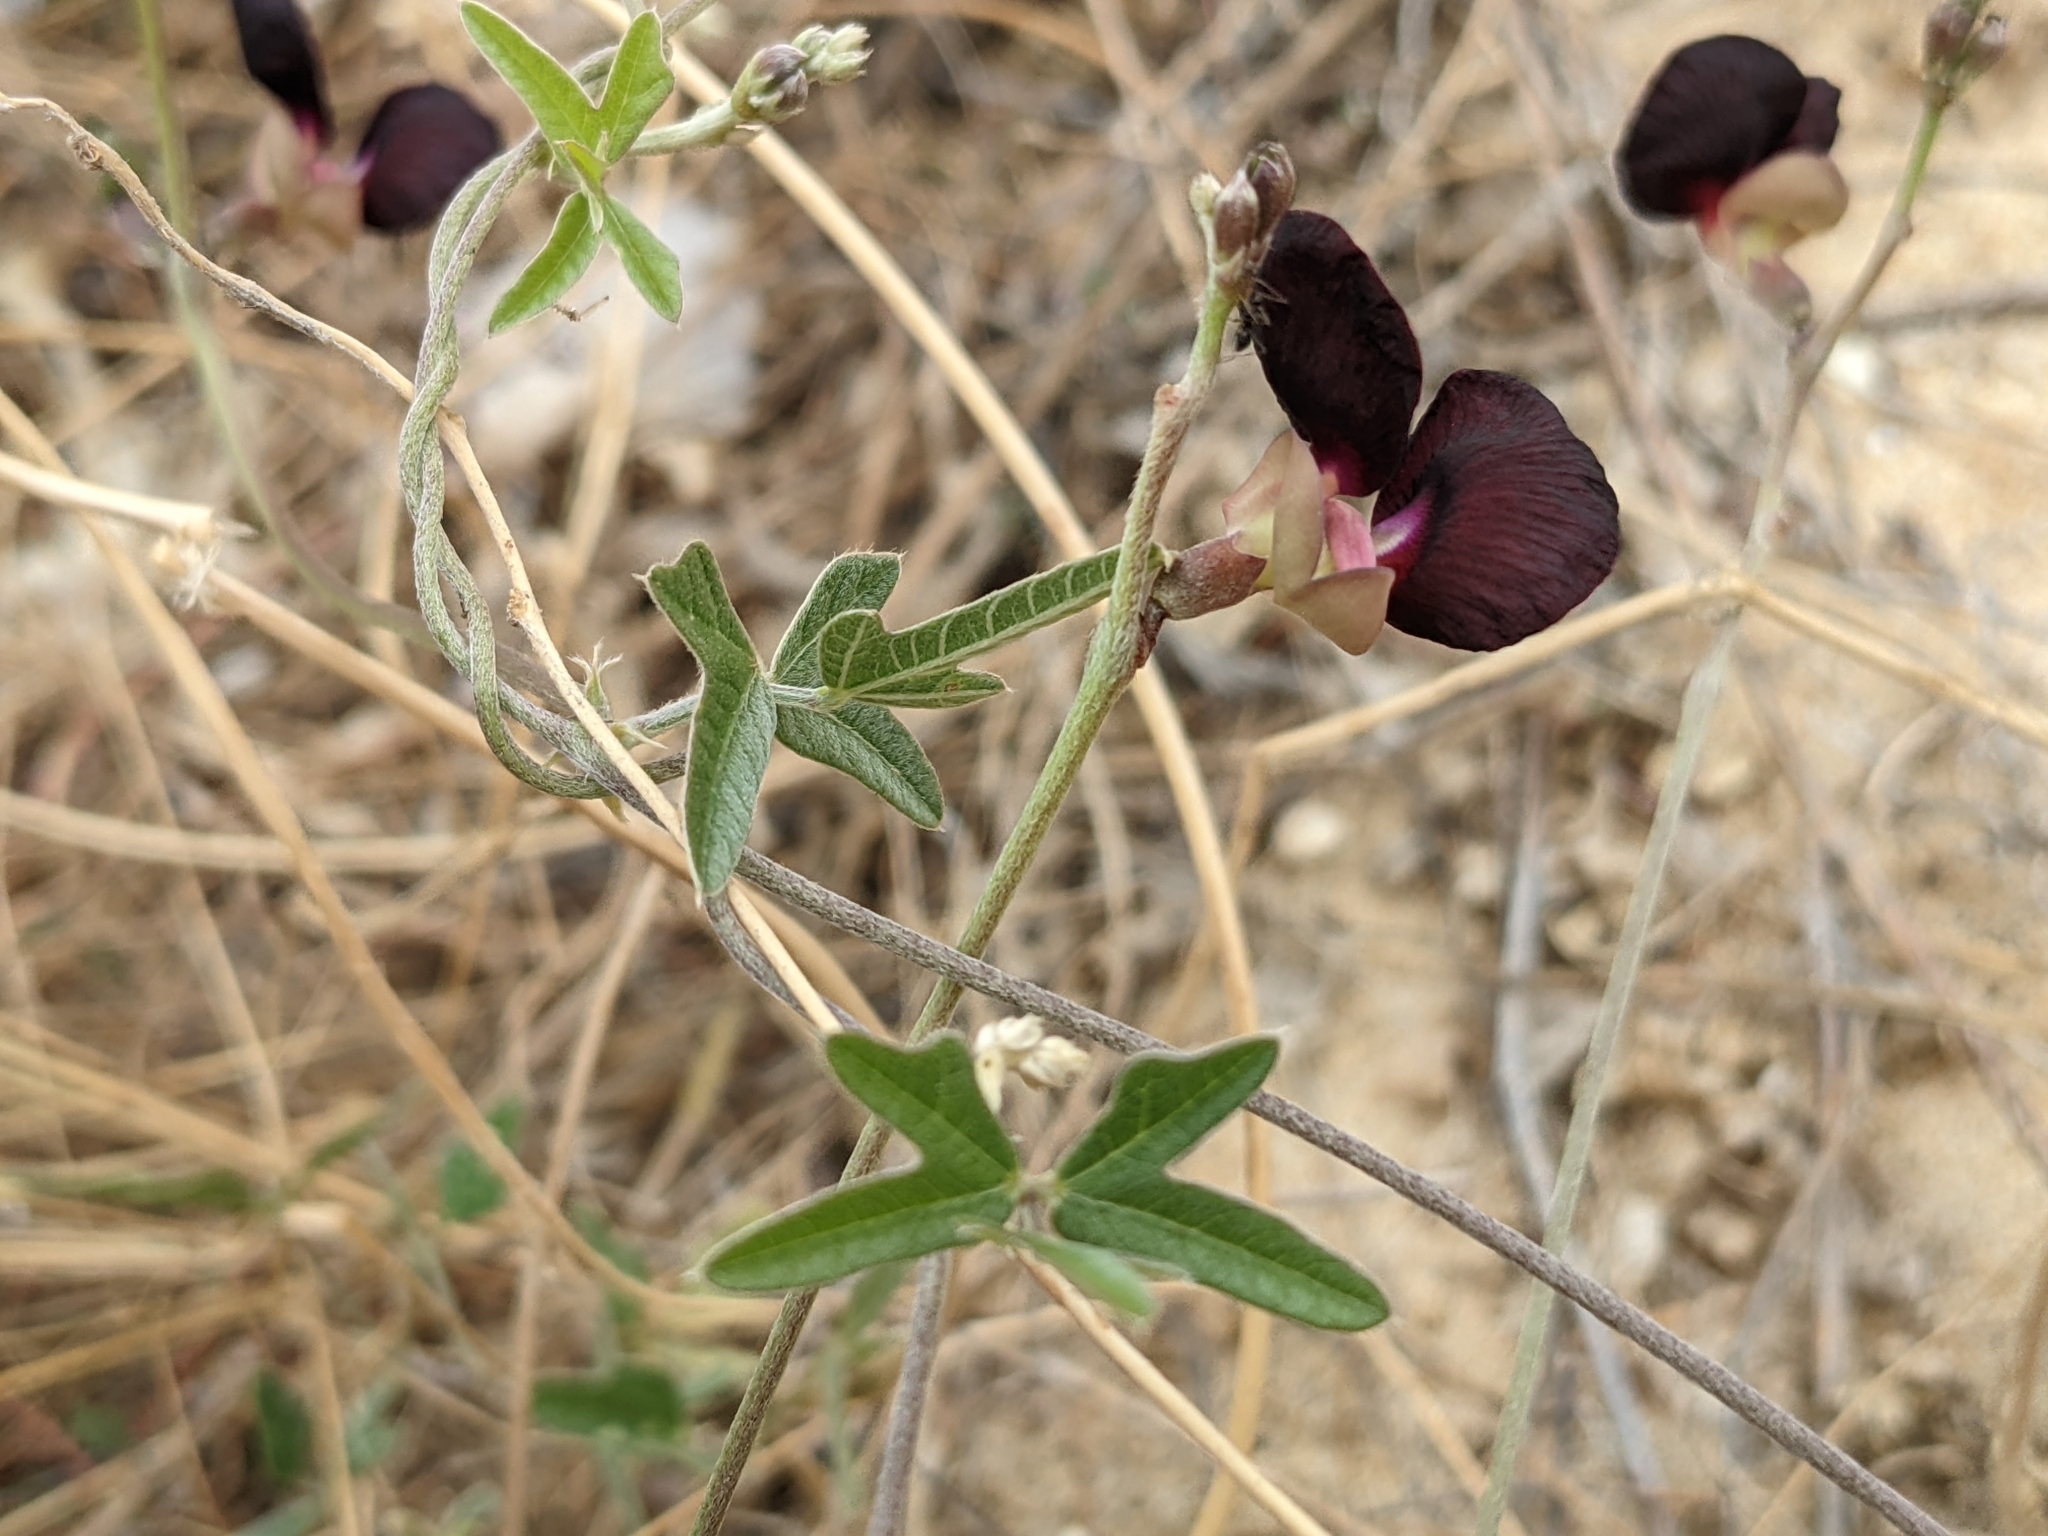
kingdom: Plantae
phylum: Tracheophyta
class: Magnoliopsida
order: Fabales
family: Fabaceae
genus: Macroptilium
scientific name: Macroptilium atropurpureum
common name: Purple bushbean
